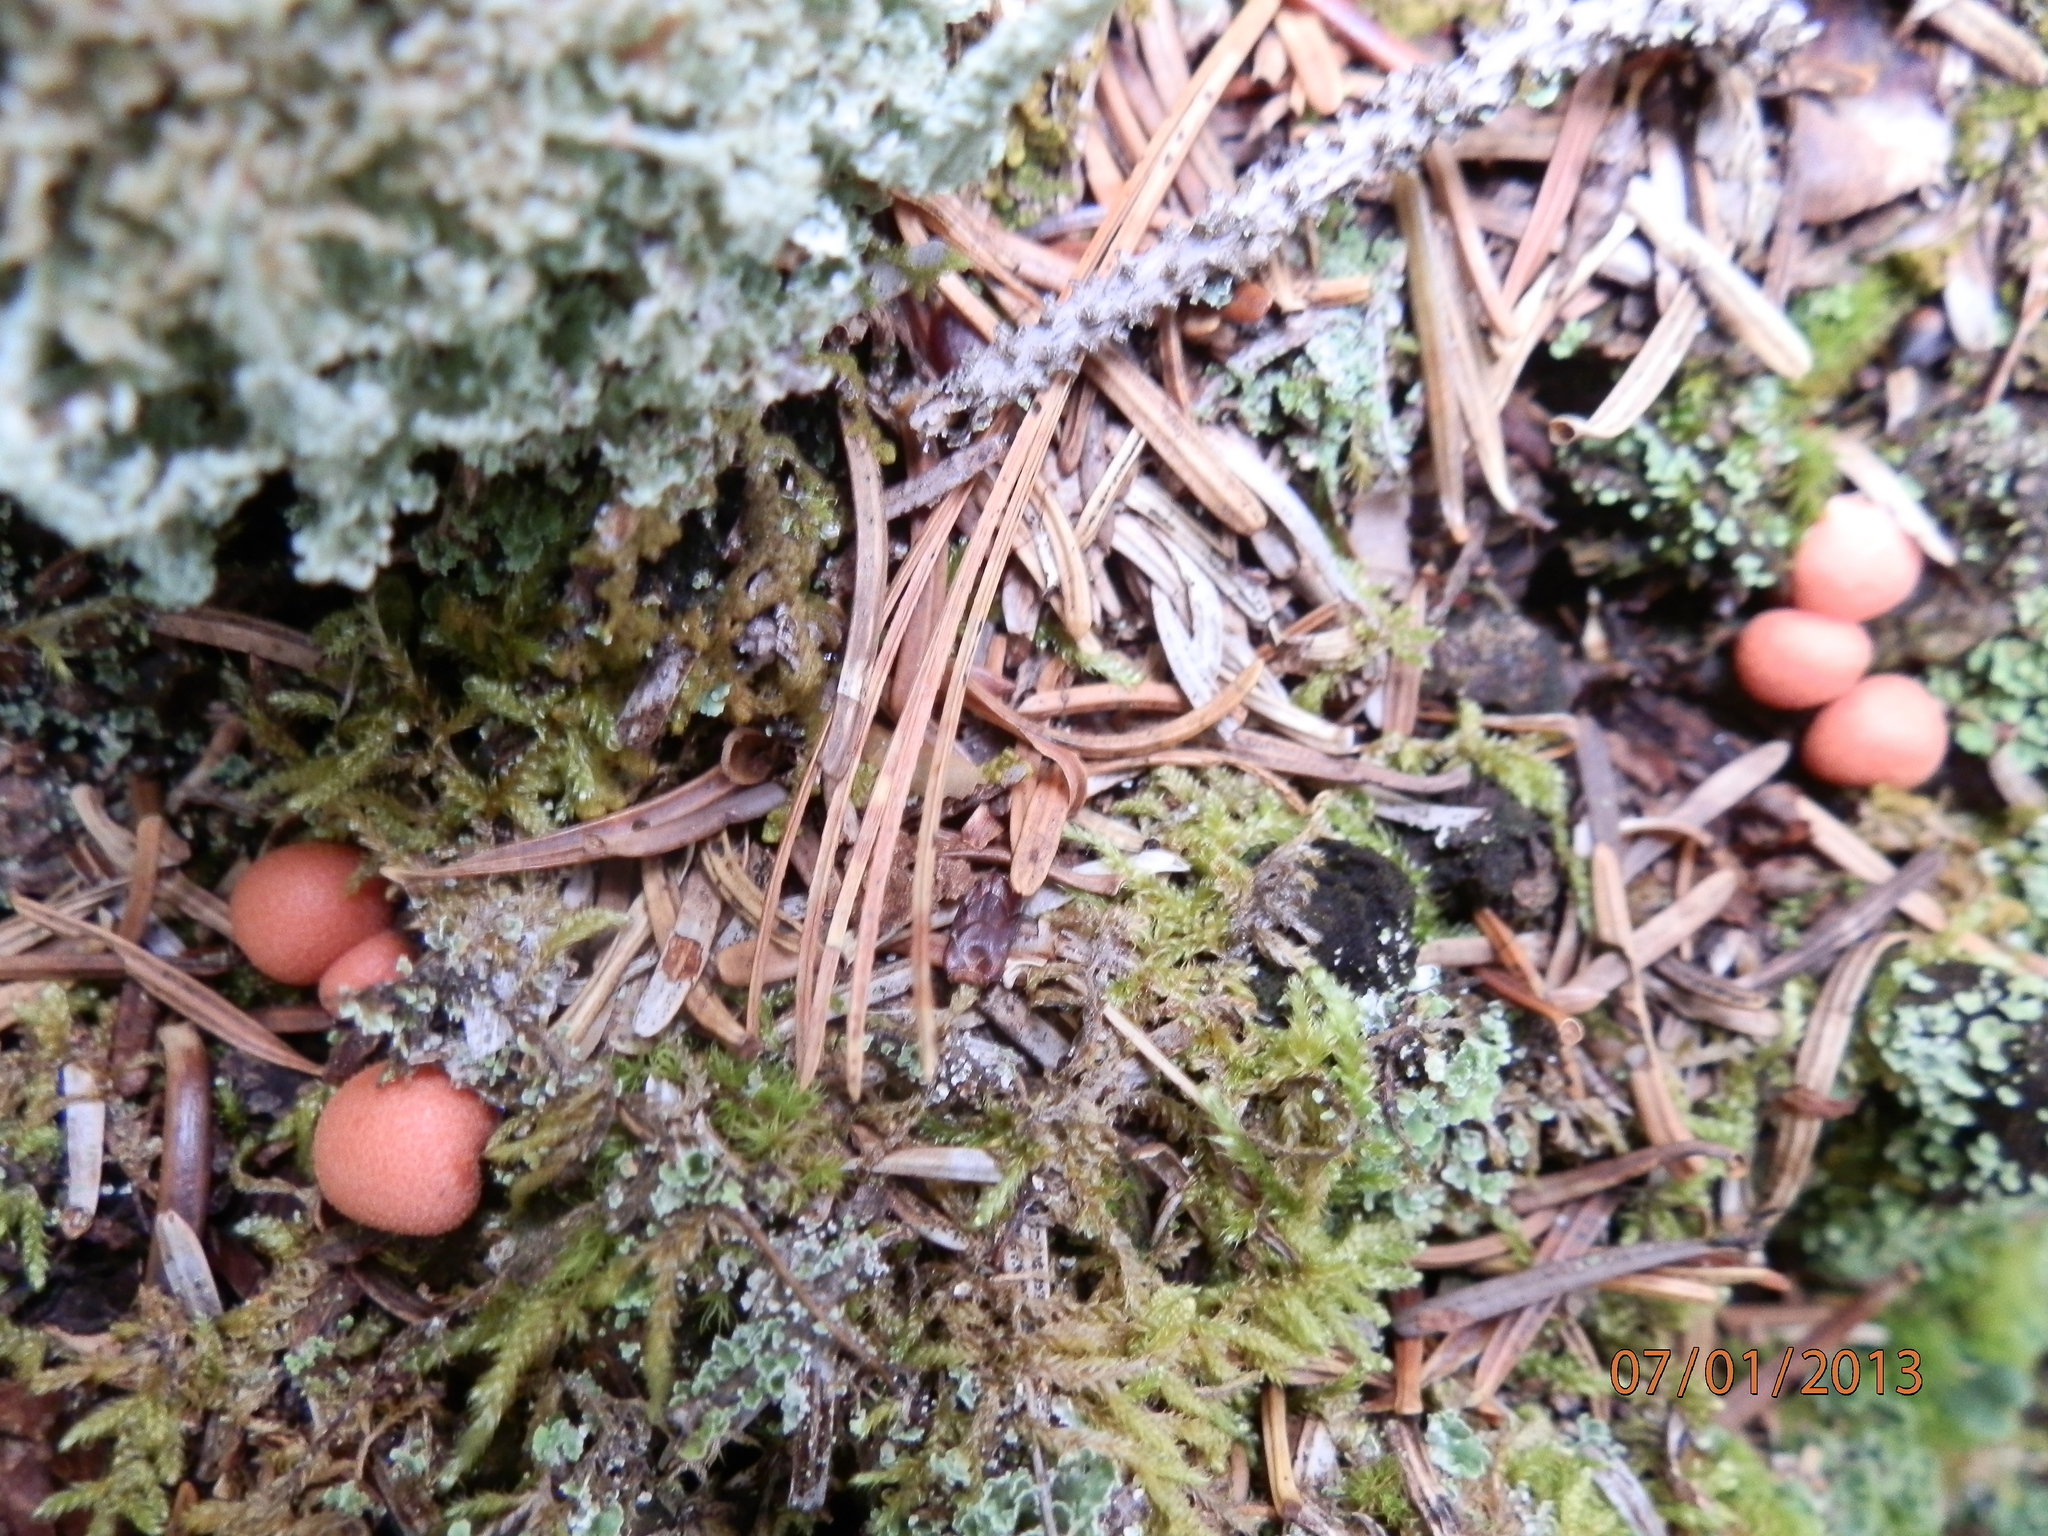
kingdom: Protozoa
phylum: Mycetozoa
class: Myxomycetes
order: Cribrariales
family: Tubiferaceae
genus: Lycogala
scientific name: Lycogala epidendrum
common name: Wolf's milk
